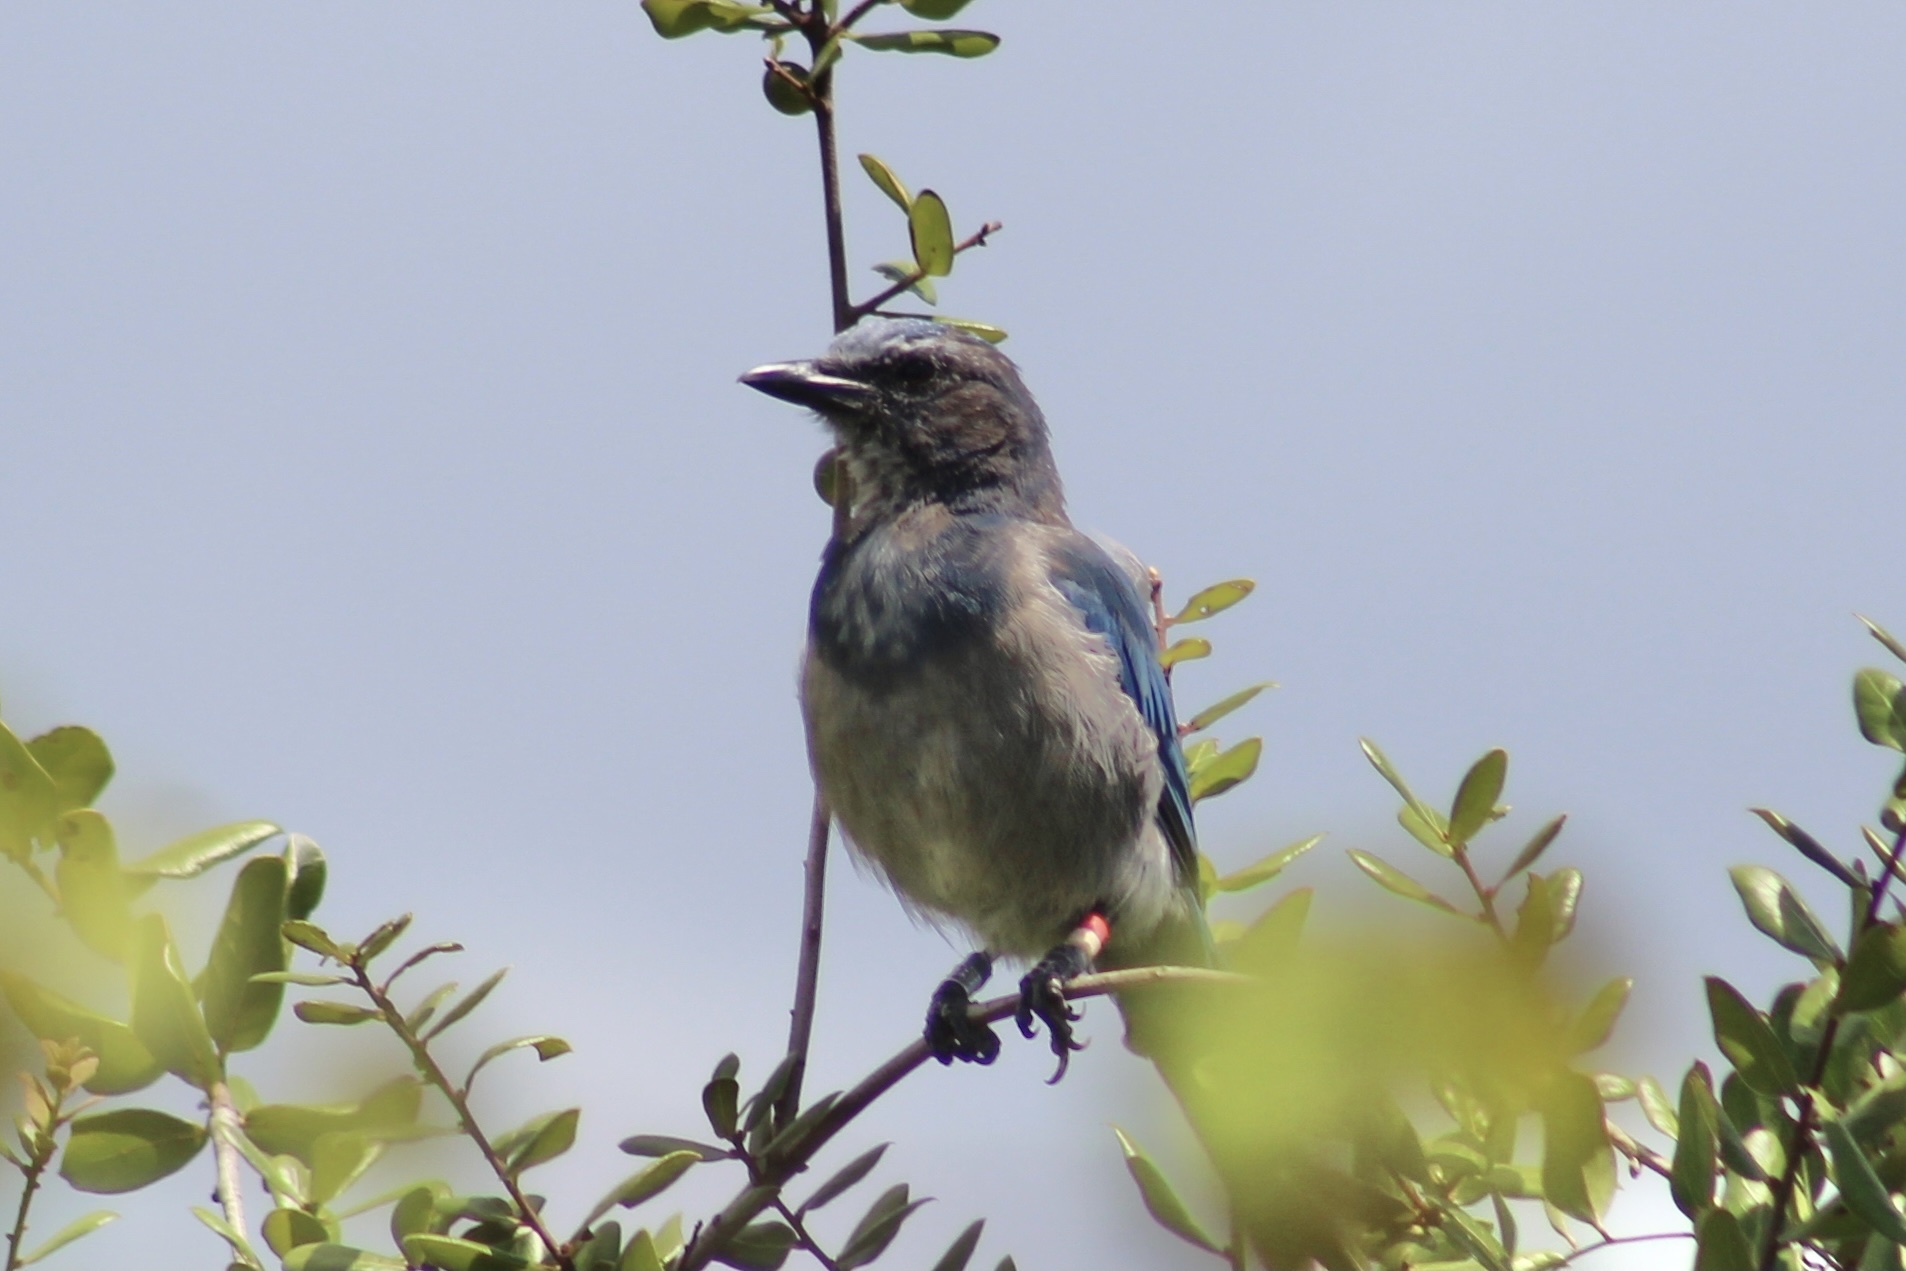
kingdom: Animalia
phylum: Chordata
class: Aves
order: Passeriformes
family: Corvidae
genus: Aphelocoma
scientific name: Aphelocoma coerulescens
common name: Florida scrub jay
